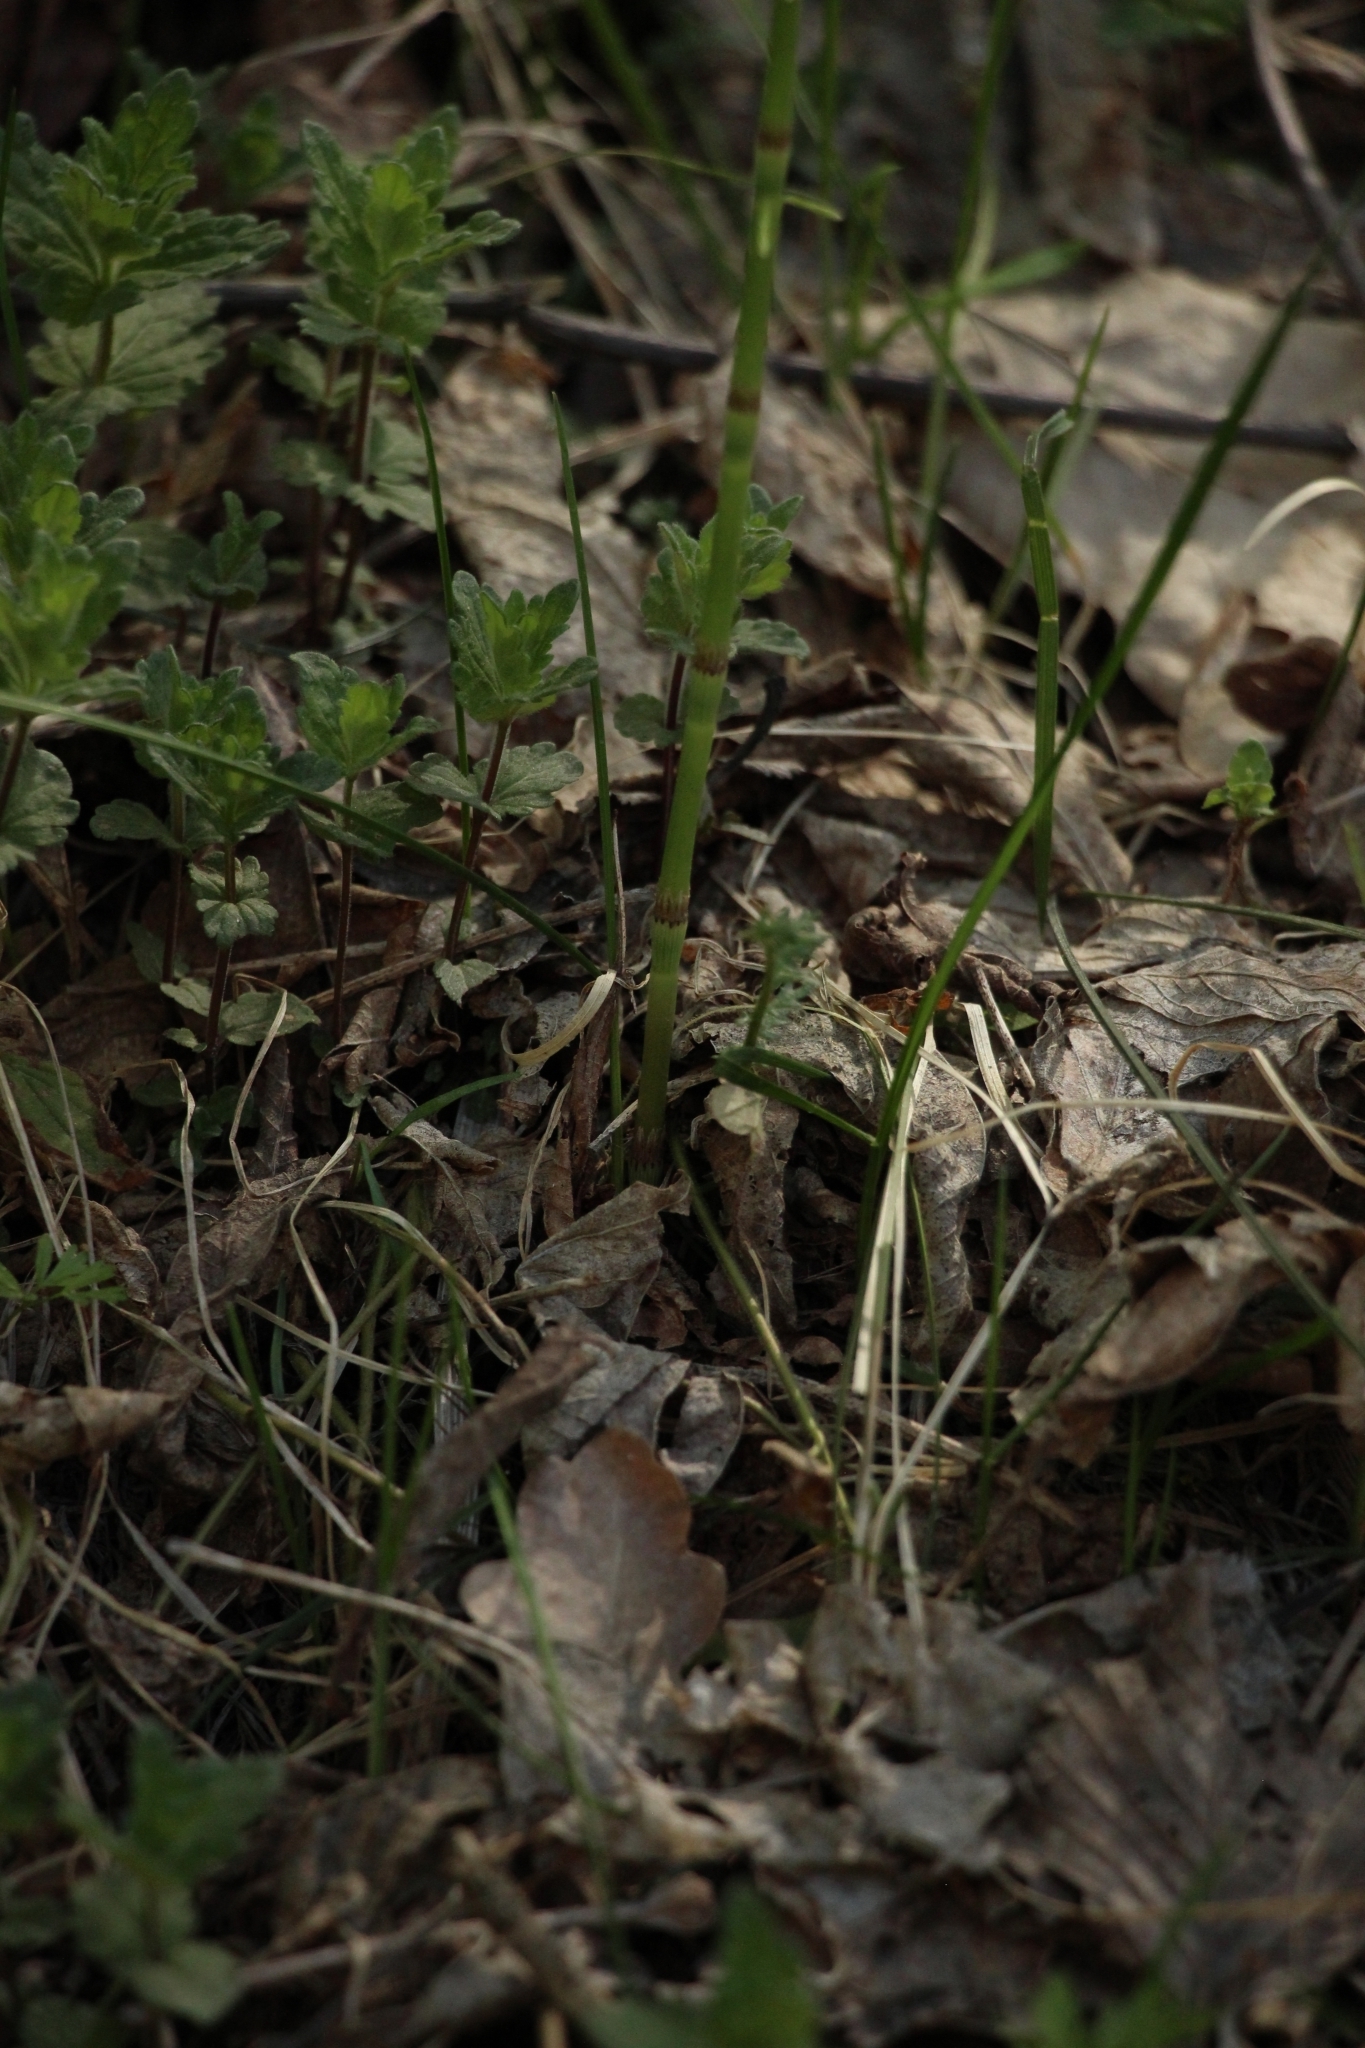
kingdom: Plantae
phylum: Tracheophyta
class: Polypodiopsida
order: Equisetales
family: Equisetaceae
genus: Equisetum
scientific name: Equisetum pratense
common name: Meadow horsetail
